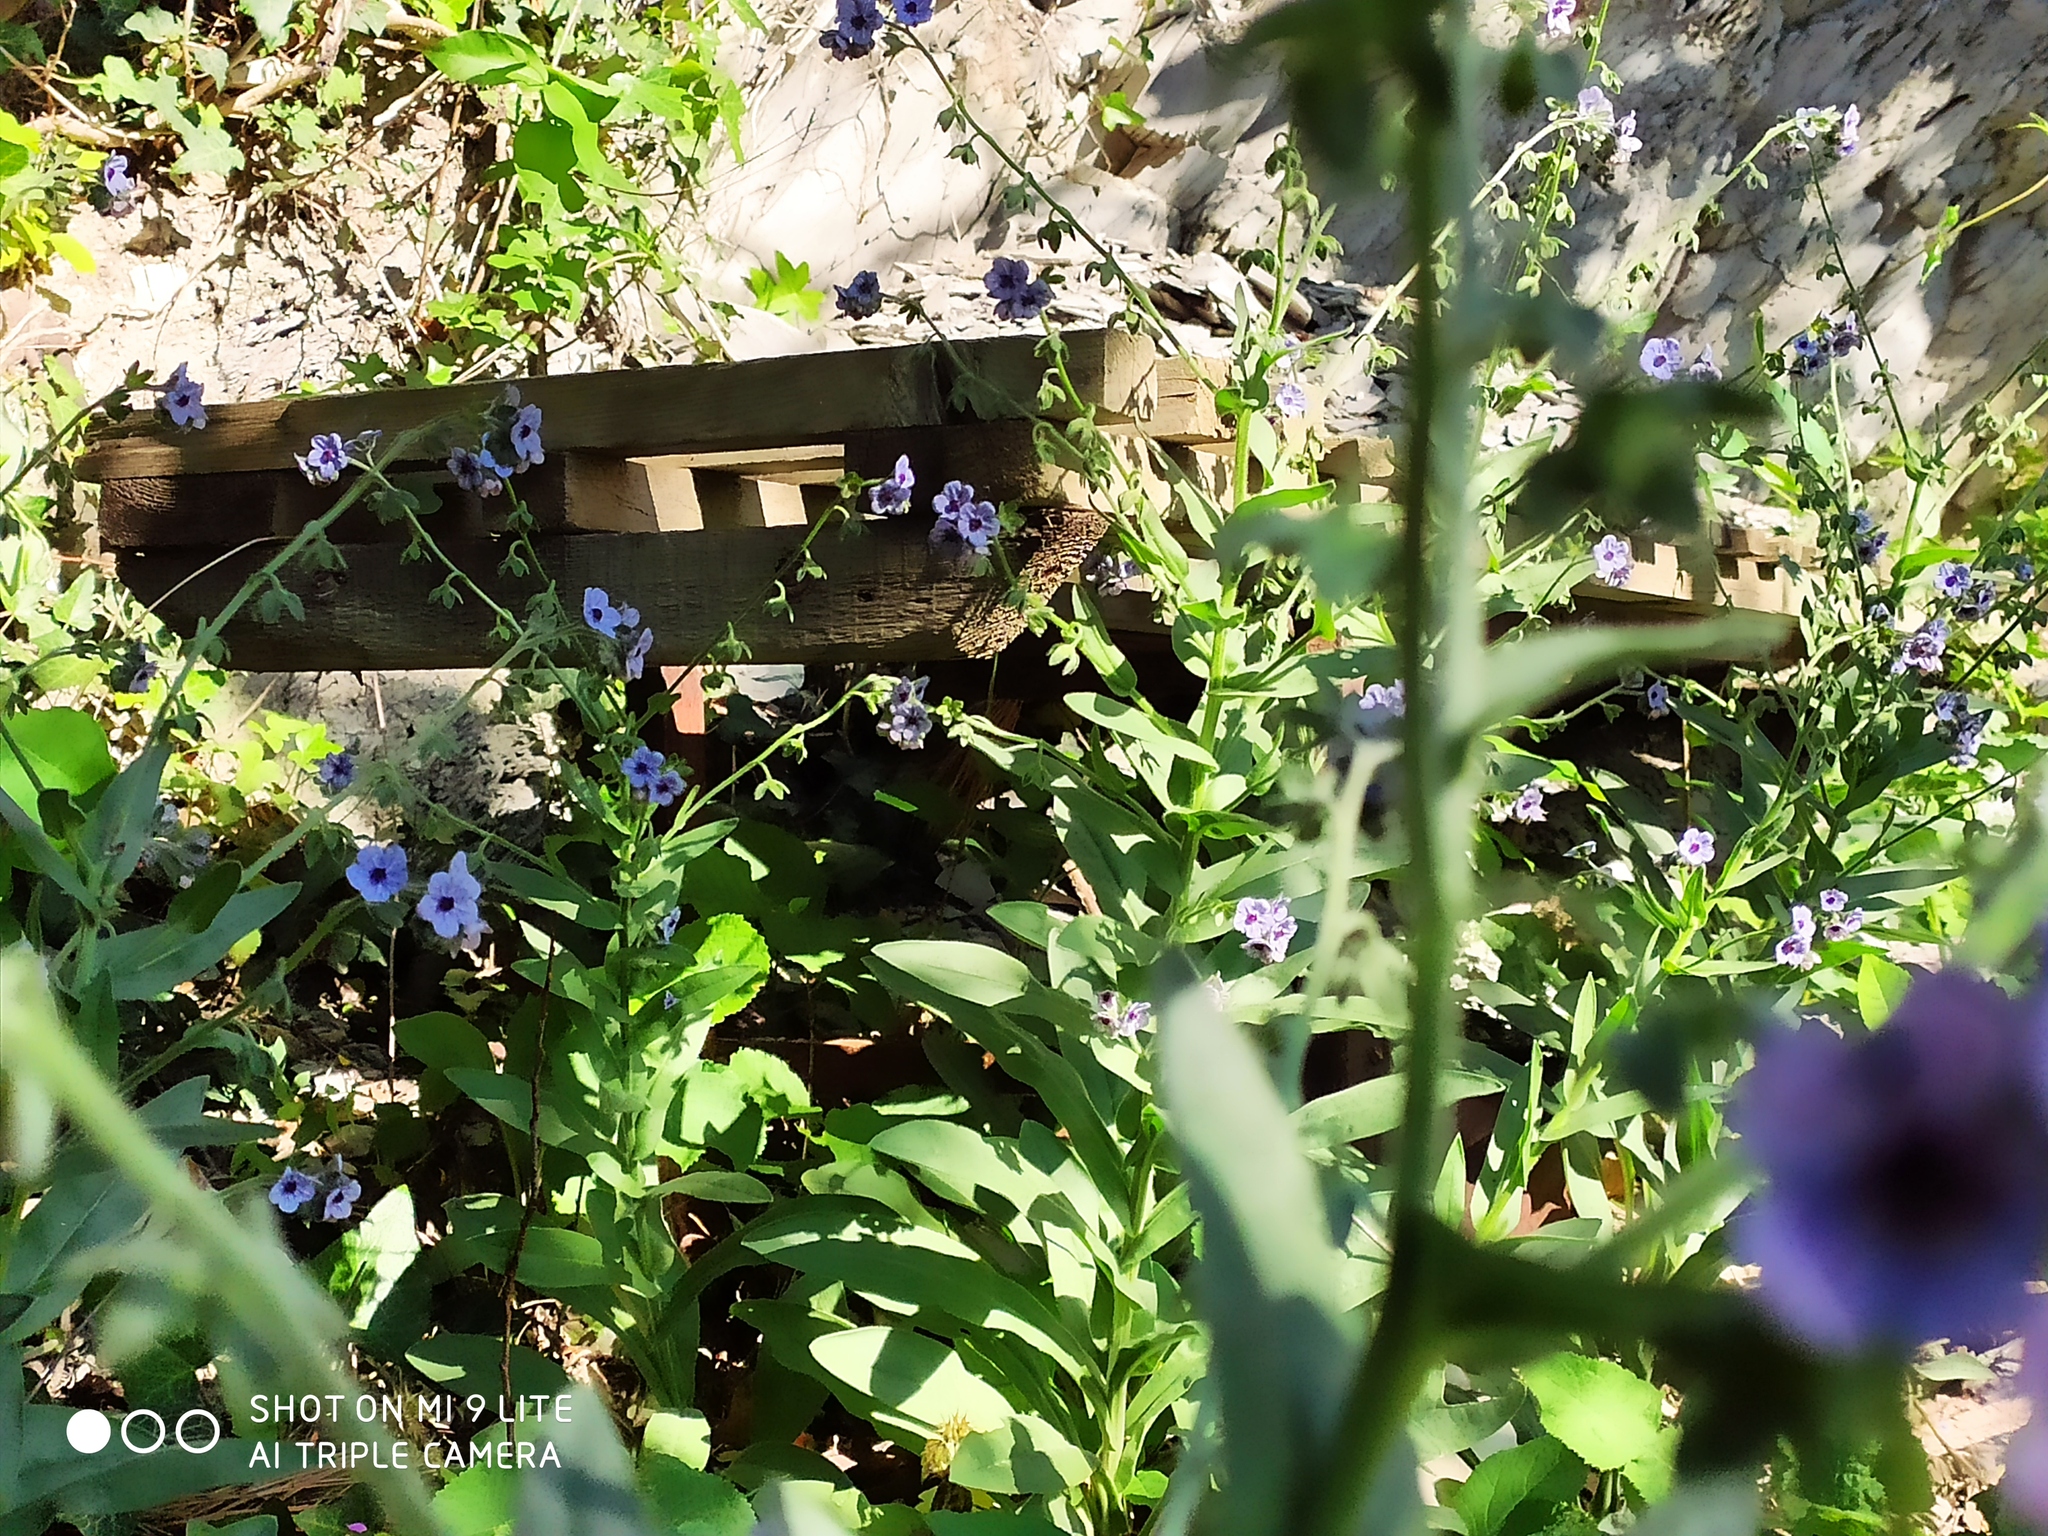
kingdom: Plantae
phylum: Tracheophyta
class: Magnoliopsida
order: Boraginales
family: Boraginaceae
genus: Cynoglossum
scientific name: Cynoglossum creticum
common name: Blue hound's tongue
